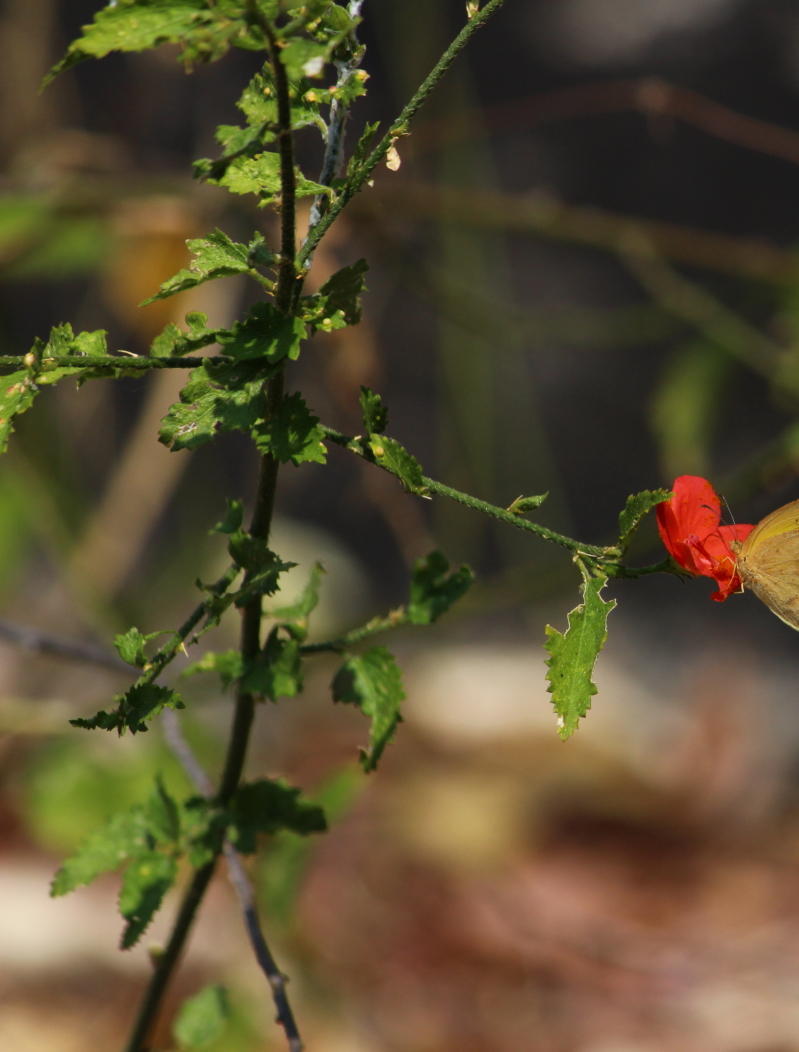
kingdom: Plantae
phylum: Tracheophyta
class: Magnoliopsida
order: Malvales
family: Malvaceae
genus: Hibiscus
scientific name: Hibiscus praeteritus
